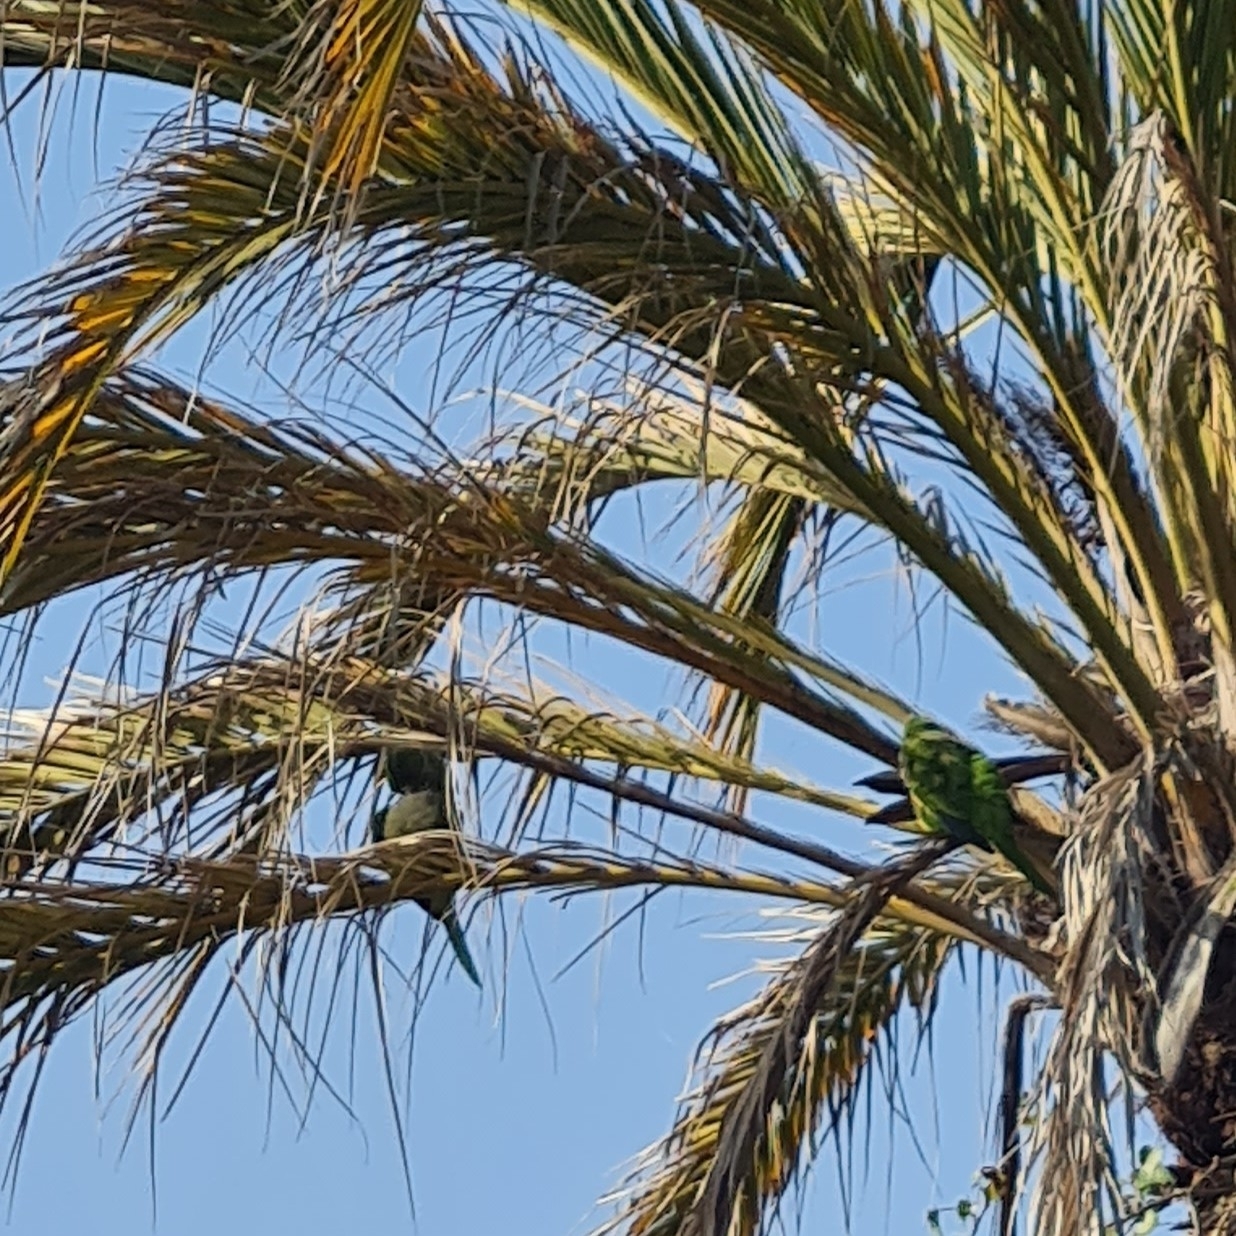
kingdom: Animalia
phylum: Chordata
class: Aves
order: Psittaciformes
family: Psittacidae
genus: Myiopsitta
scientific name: Myiopsitta monachus
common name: Monk parakeet
